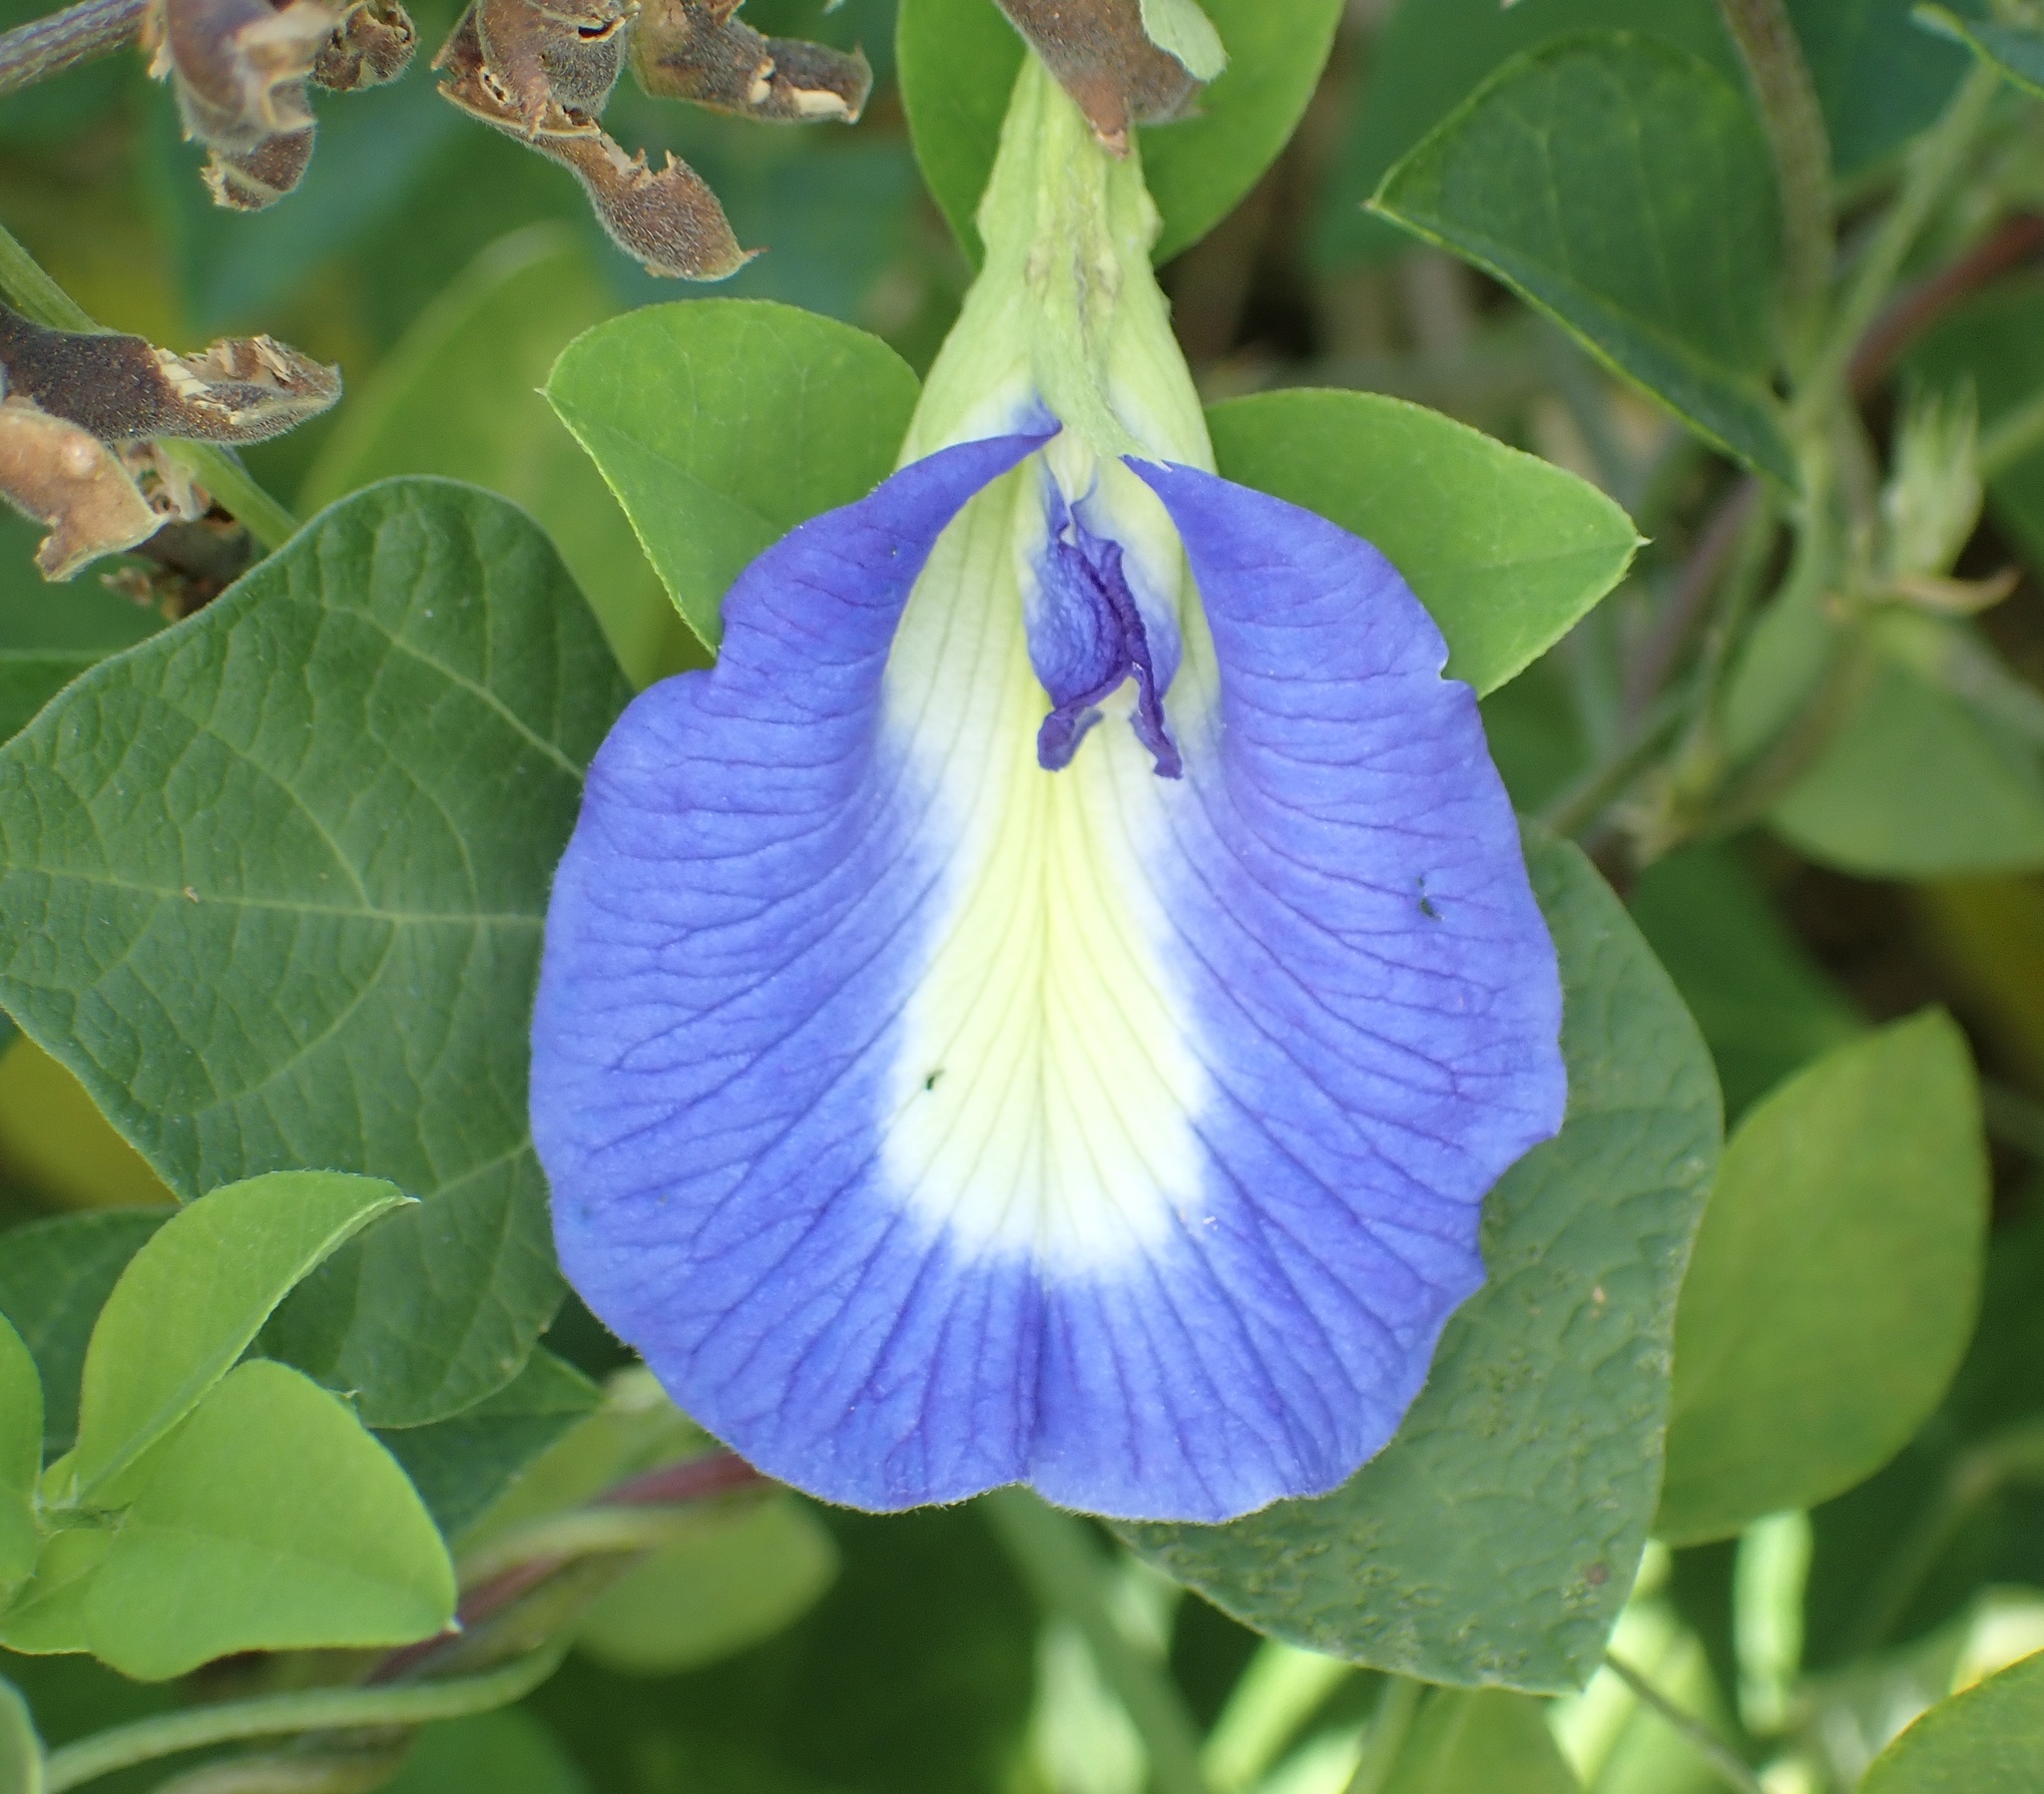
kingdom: Plantae
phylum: Tracheophyta
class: Magnoliopsida
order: Fabales
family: Fabaceae
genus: Clitoria
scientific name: Clitoria ternatea
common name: Asian pigeonwings
